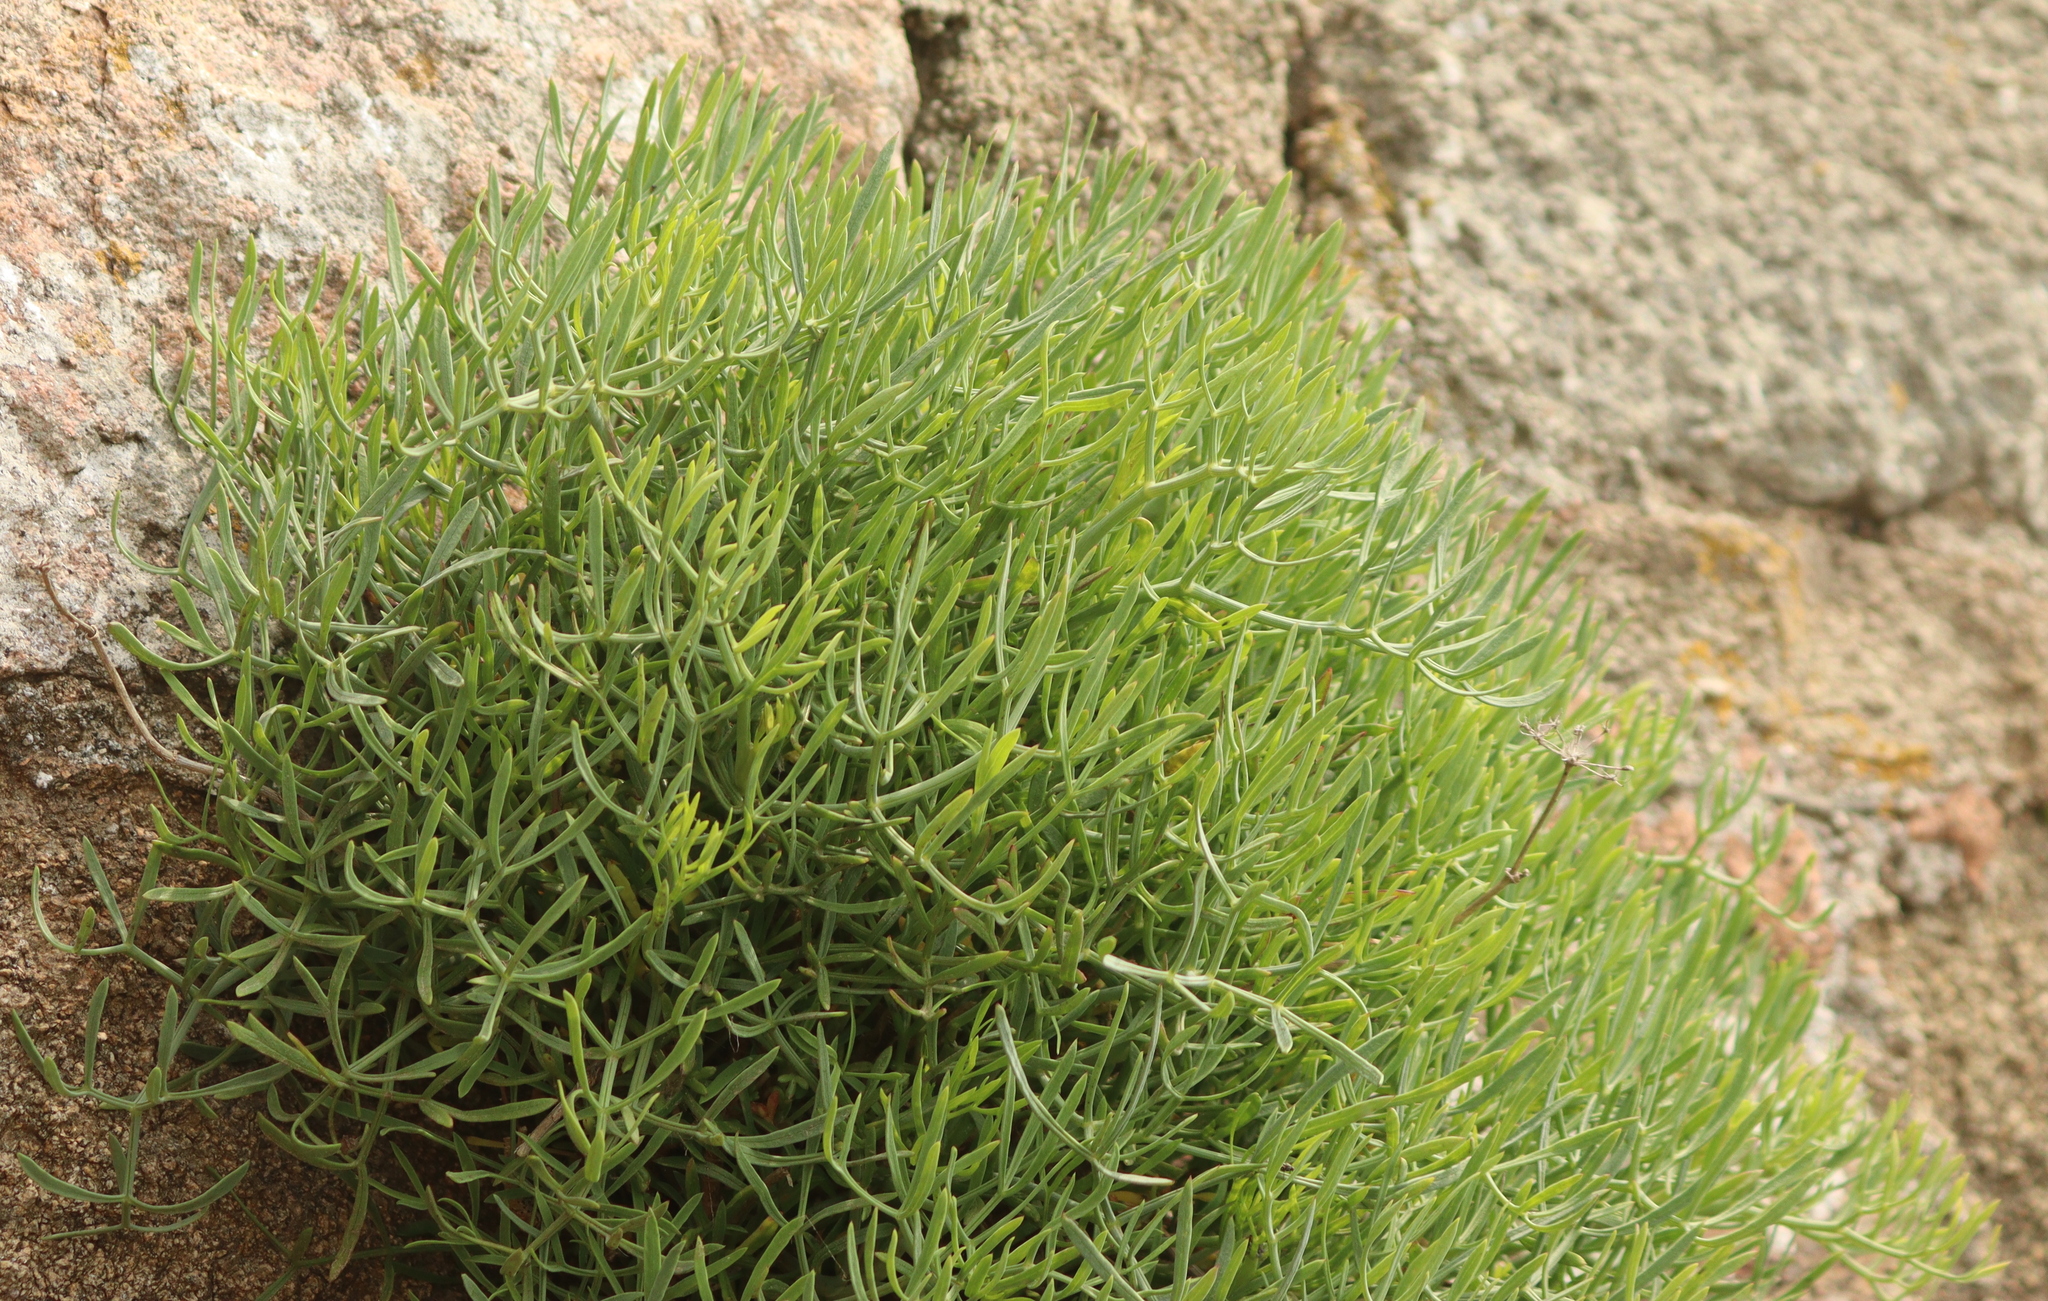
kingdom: Plantae
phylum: Tracheophyta
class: Magnoliopsida
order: Apiales
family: Apiaceae
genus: Crithmum
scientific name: Crithmum maritimum
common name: Rock samphire
